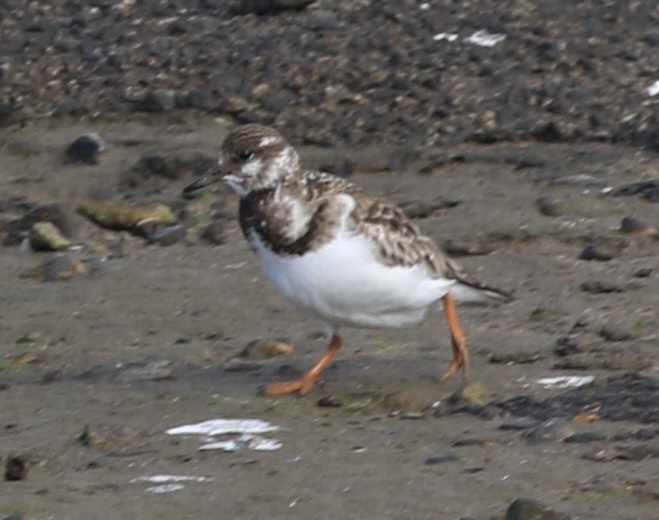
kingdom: Animalia
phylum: Chordata
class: Aves
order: Charadriiformes
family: Scolopacidae
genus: Arenaria
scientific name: Arenaria interpres
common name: Ruddy turnstone
